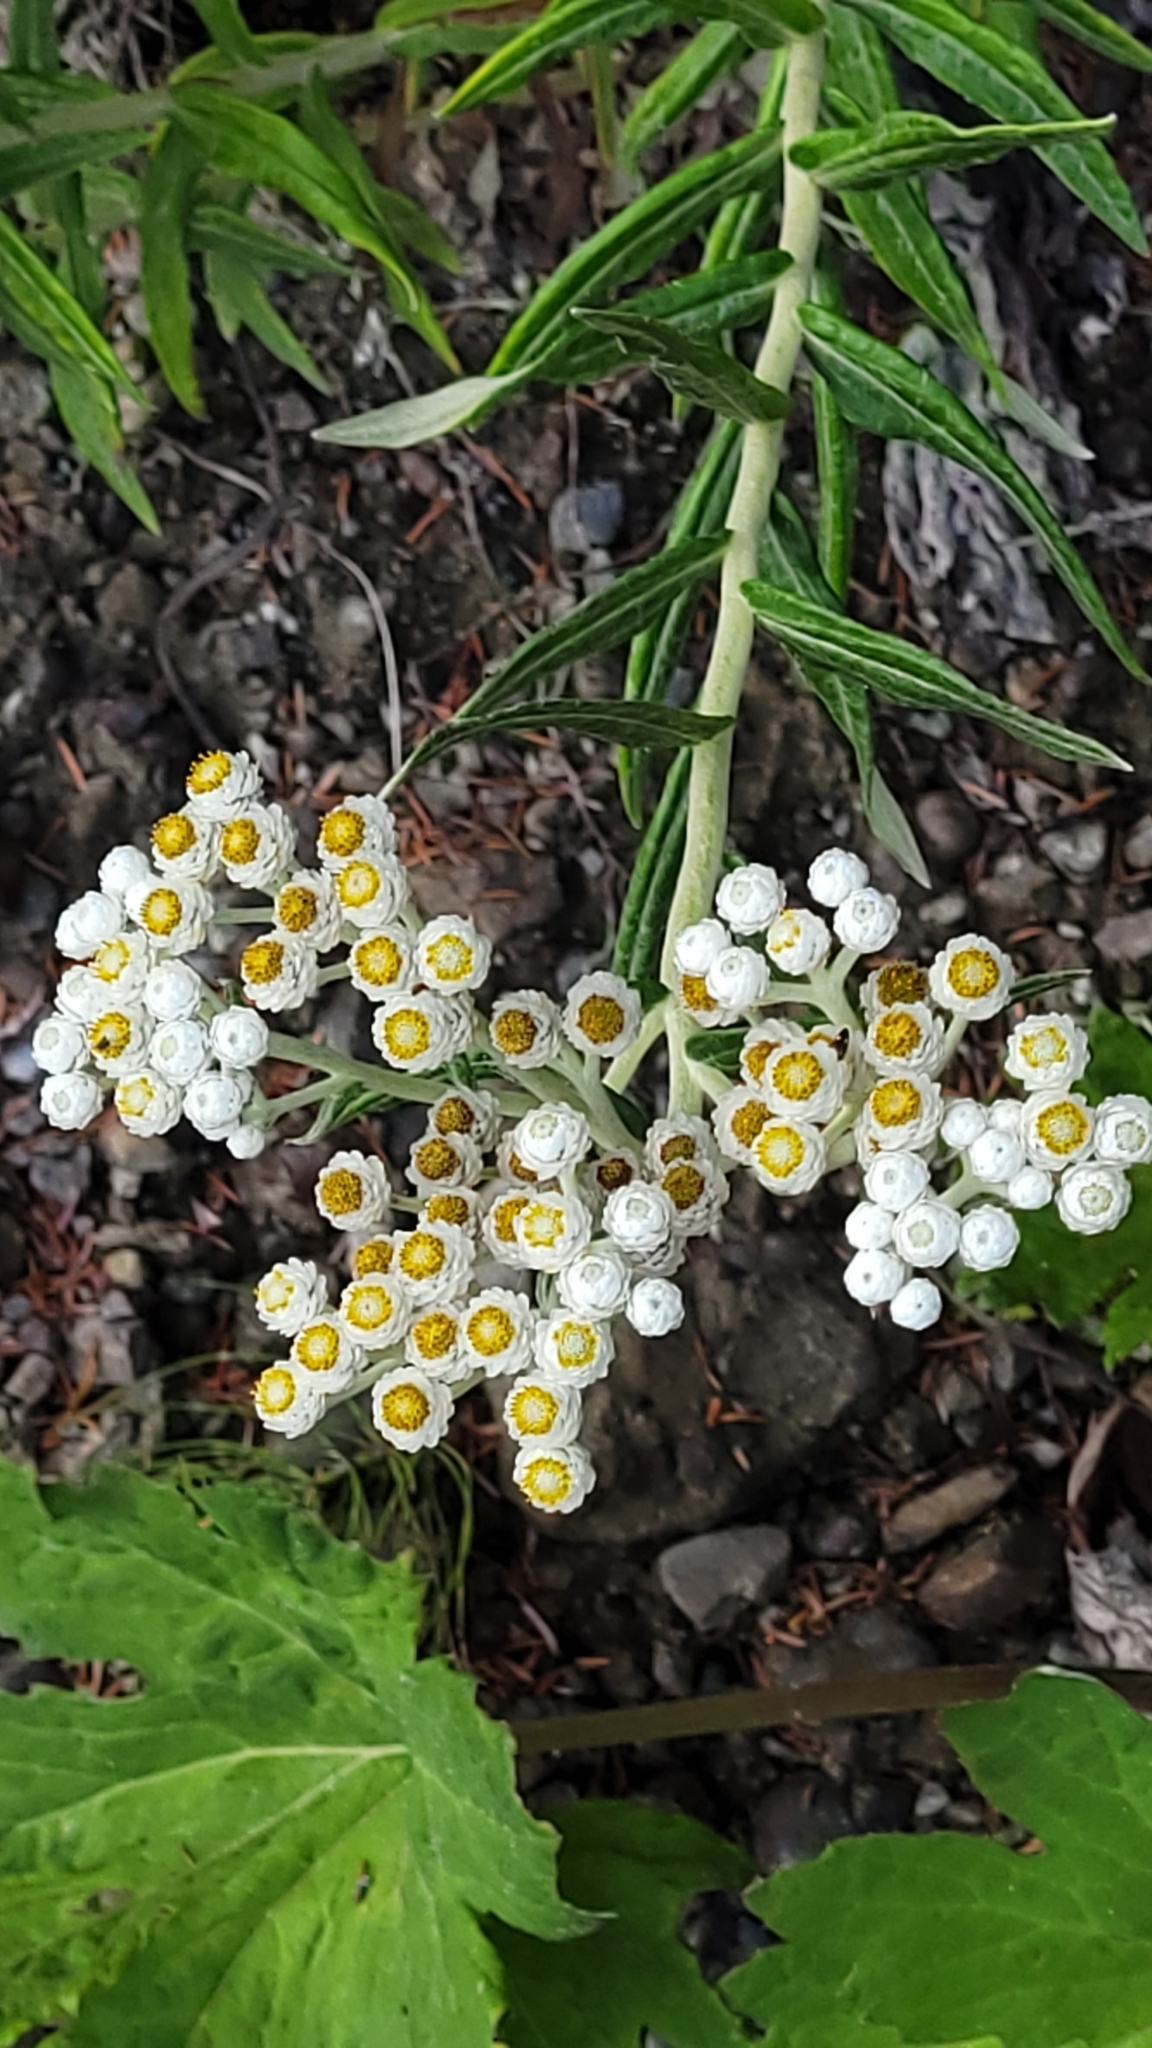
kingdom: Plantae
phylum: Tracheophyta
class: Magnoliopsida
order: Asterales
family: Asteraceae
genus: Anaphalis
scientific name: Anaphalis margaritacea
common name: Pearly everlasting
